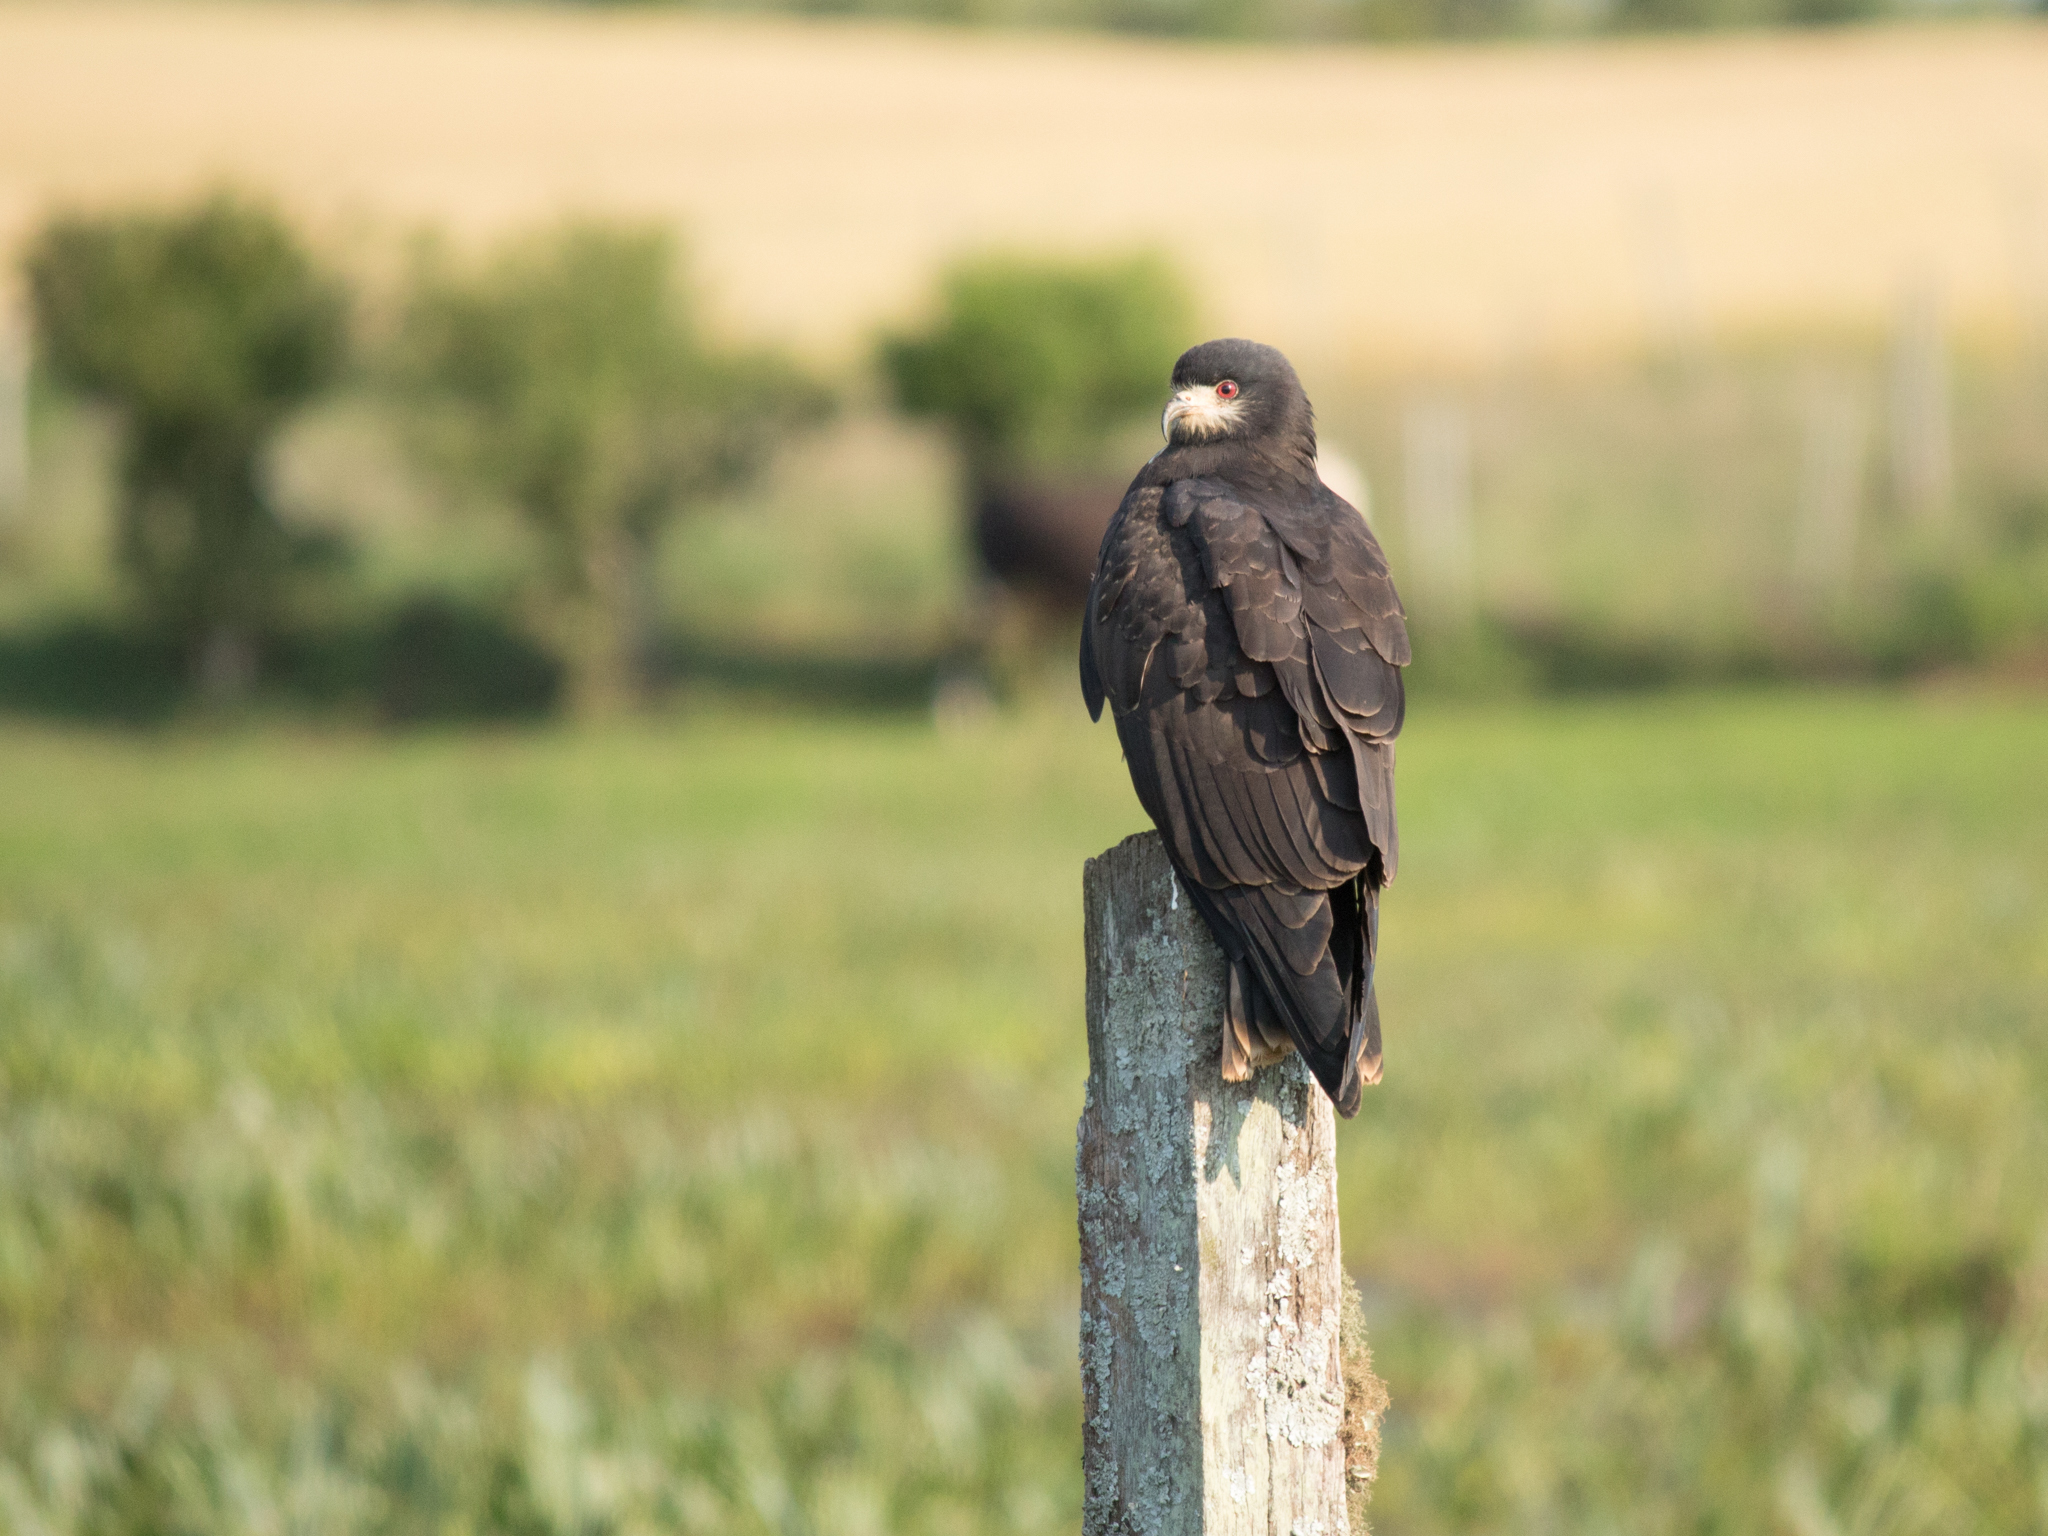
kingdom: Animalia
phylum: Chordata
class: Aves
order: Accipitriformes
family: Accipitridae
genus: Rostrhamus
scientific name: Rostrhamus sociabilis
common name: Snail kite
